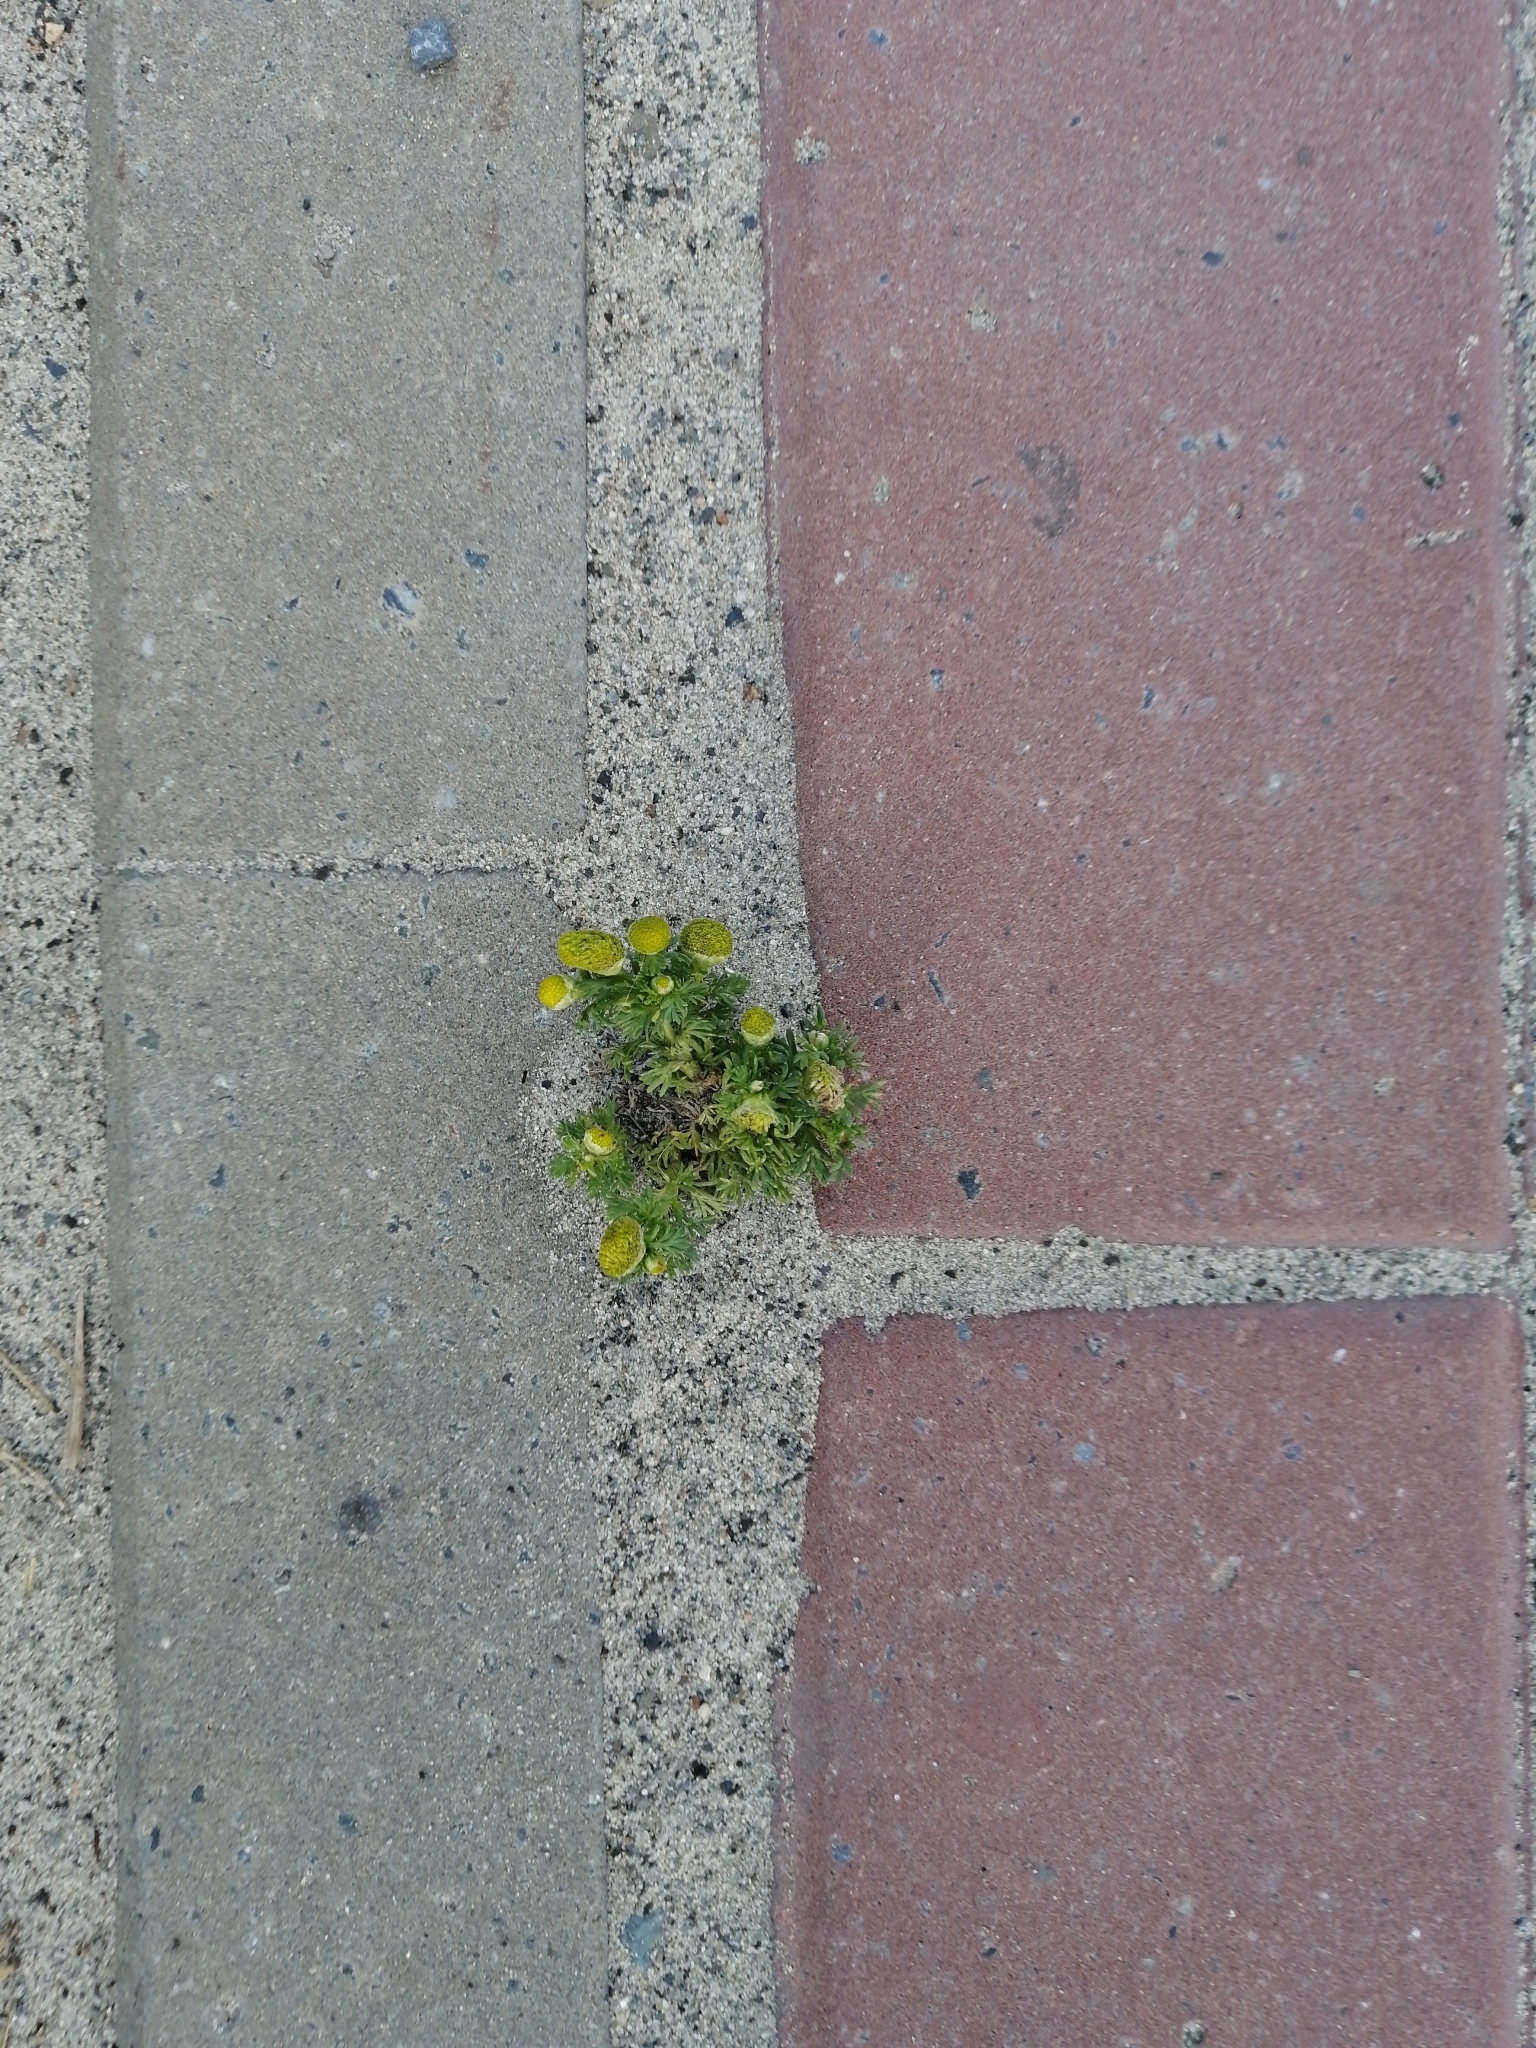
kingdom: Plantae
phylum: Tracheophyta
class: Magnoliopsida
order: Asterales
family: Asteraceae
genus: Matricaria
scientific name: Matricaria discoidea
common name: Disc mayweed
